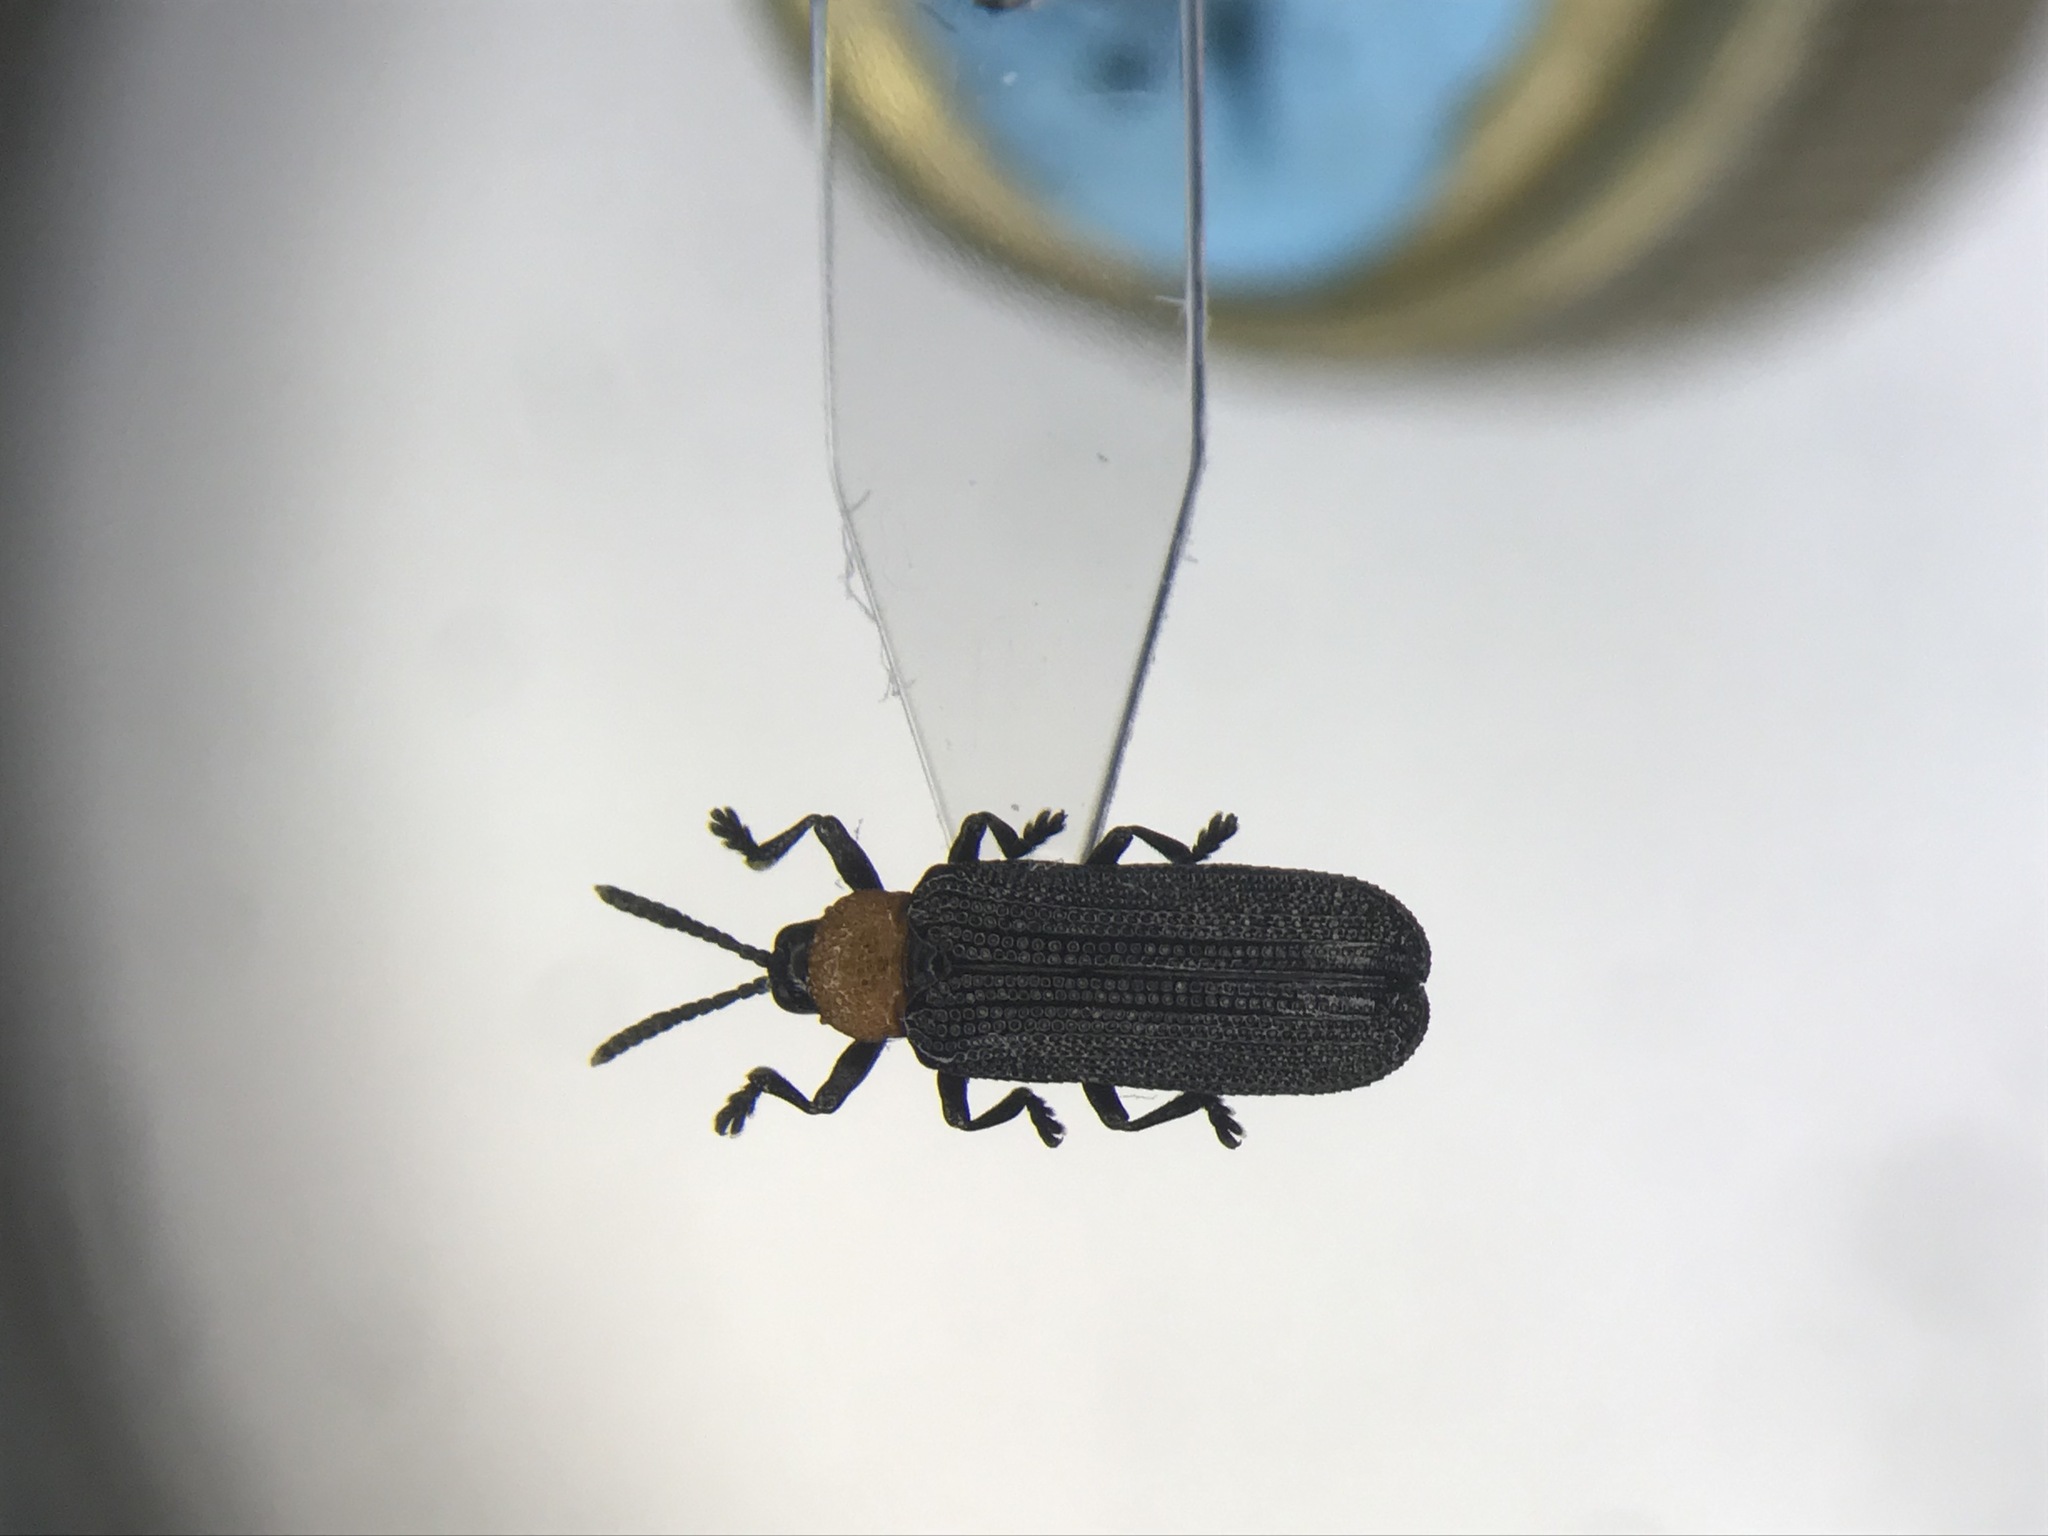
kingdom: Animalia
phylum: Arthropoda
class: Insecta
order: Coleoptera
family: Chrysomelidae
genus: Chalepus
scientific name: Chalepus walshii
